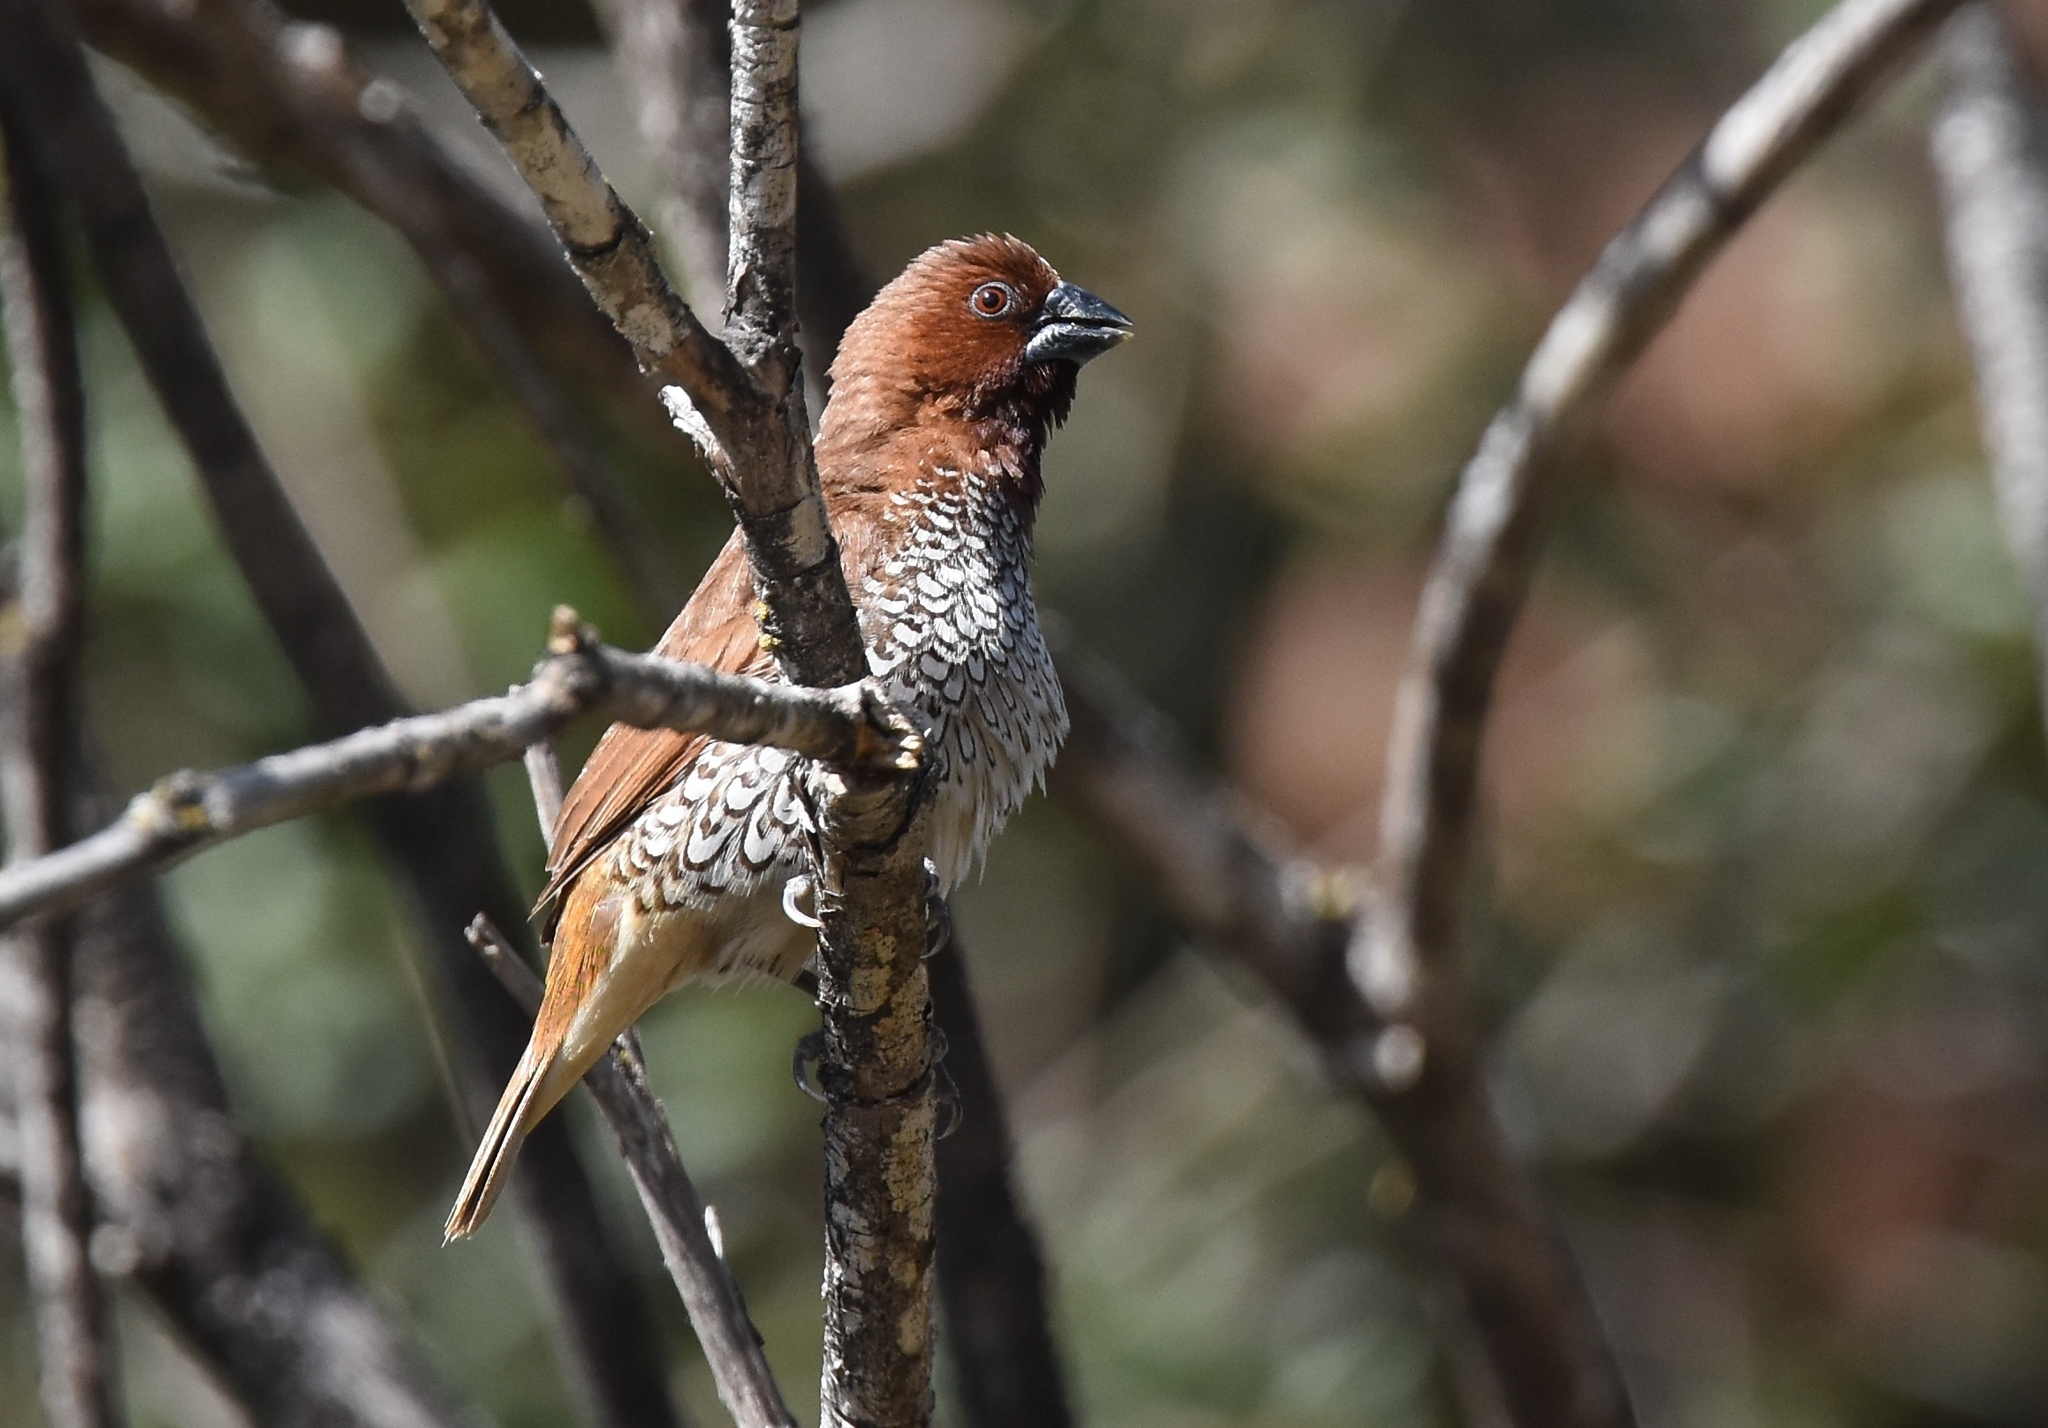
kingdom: Animalia
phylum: Chordata
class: Aves
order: Passeriformes
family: Estrildidae
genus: Lonchura
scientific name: Lonchura punctulata
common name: Scaly-breasted munia
